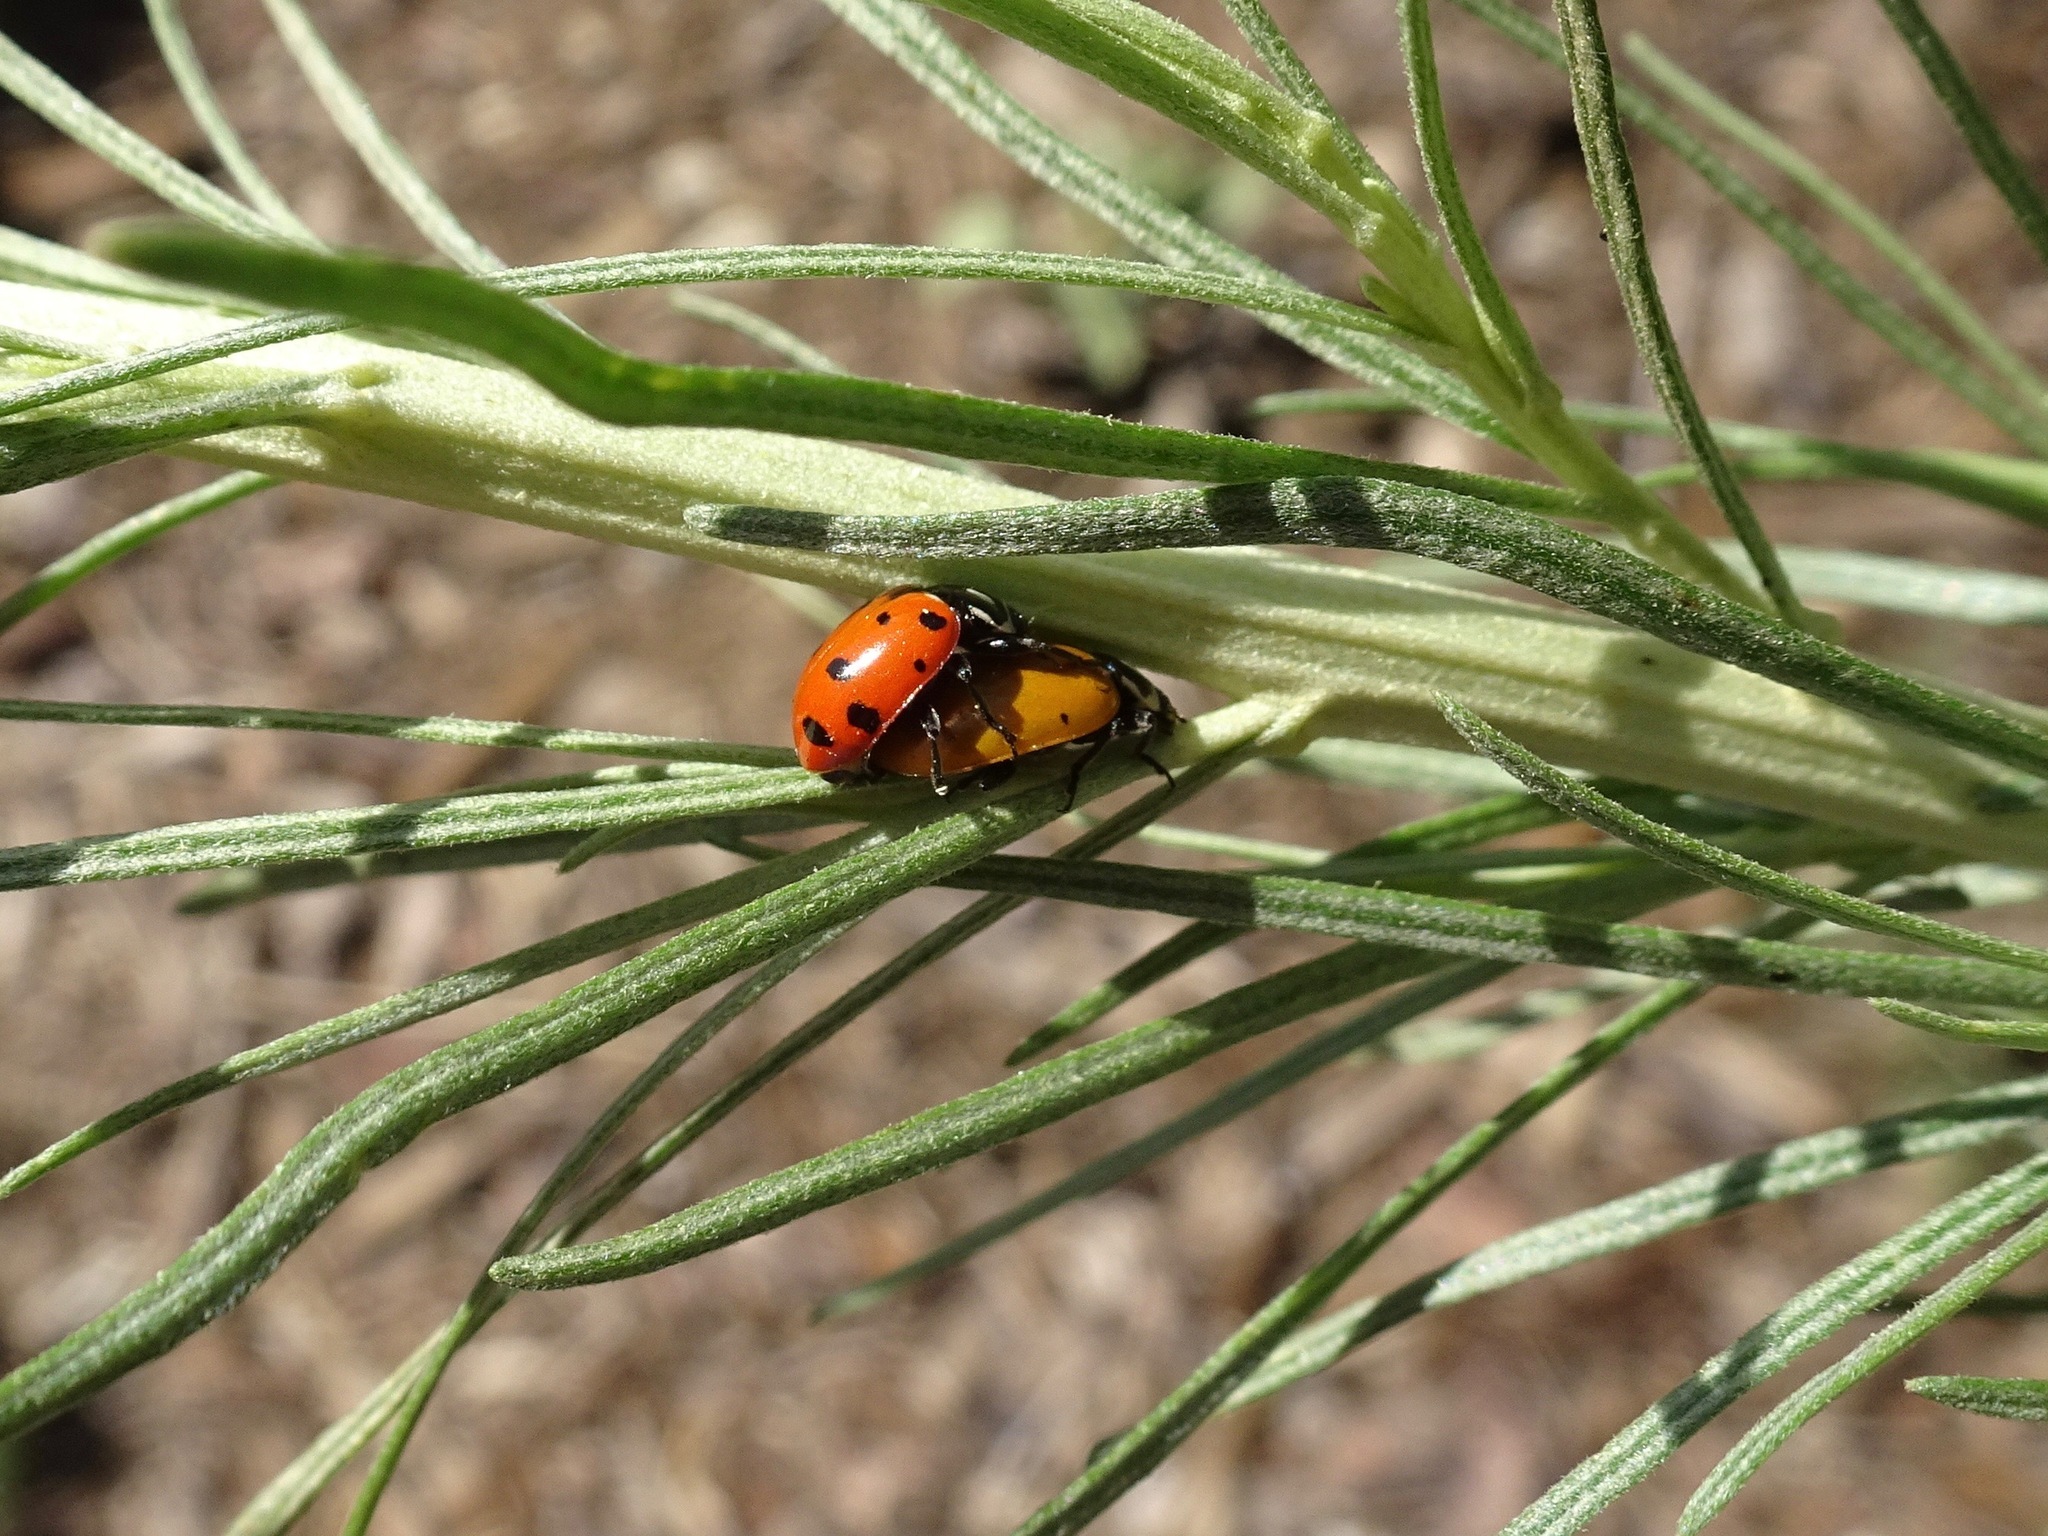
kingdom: Animalia
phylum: Arthropoda
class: Insecta
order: Coleoptera
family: Coccinellidae
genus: Hippodamia
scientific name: Hippodamia convergens
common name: Convergent lady beetle
